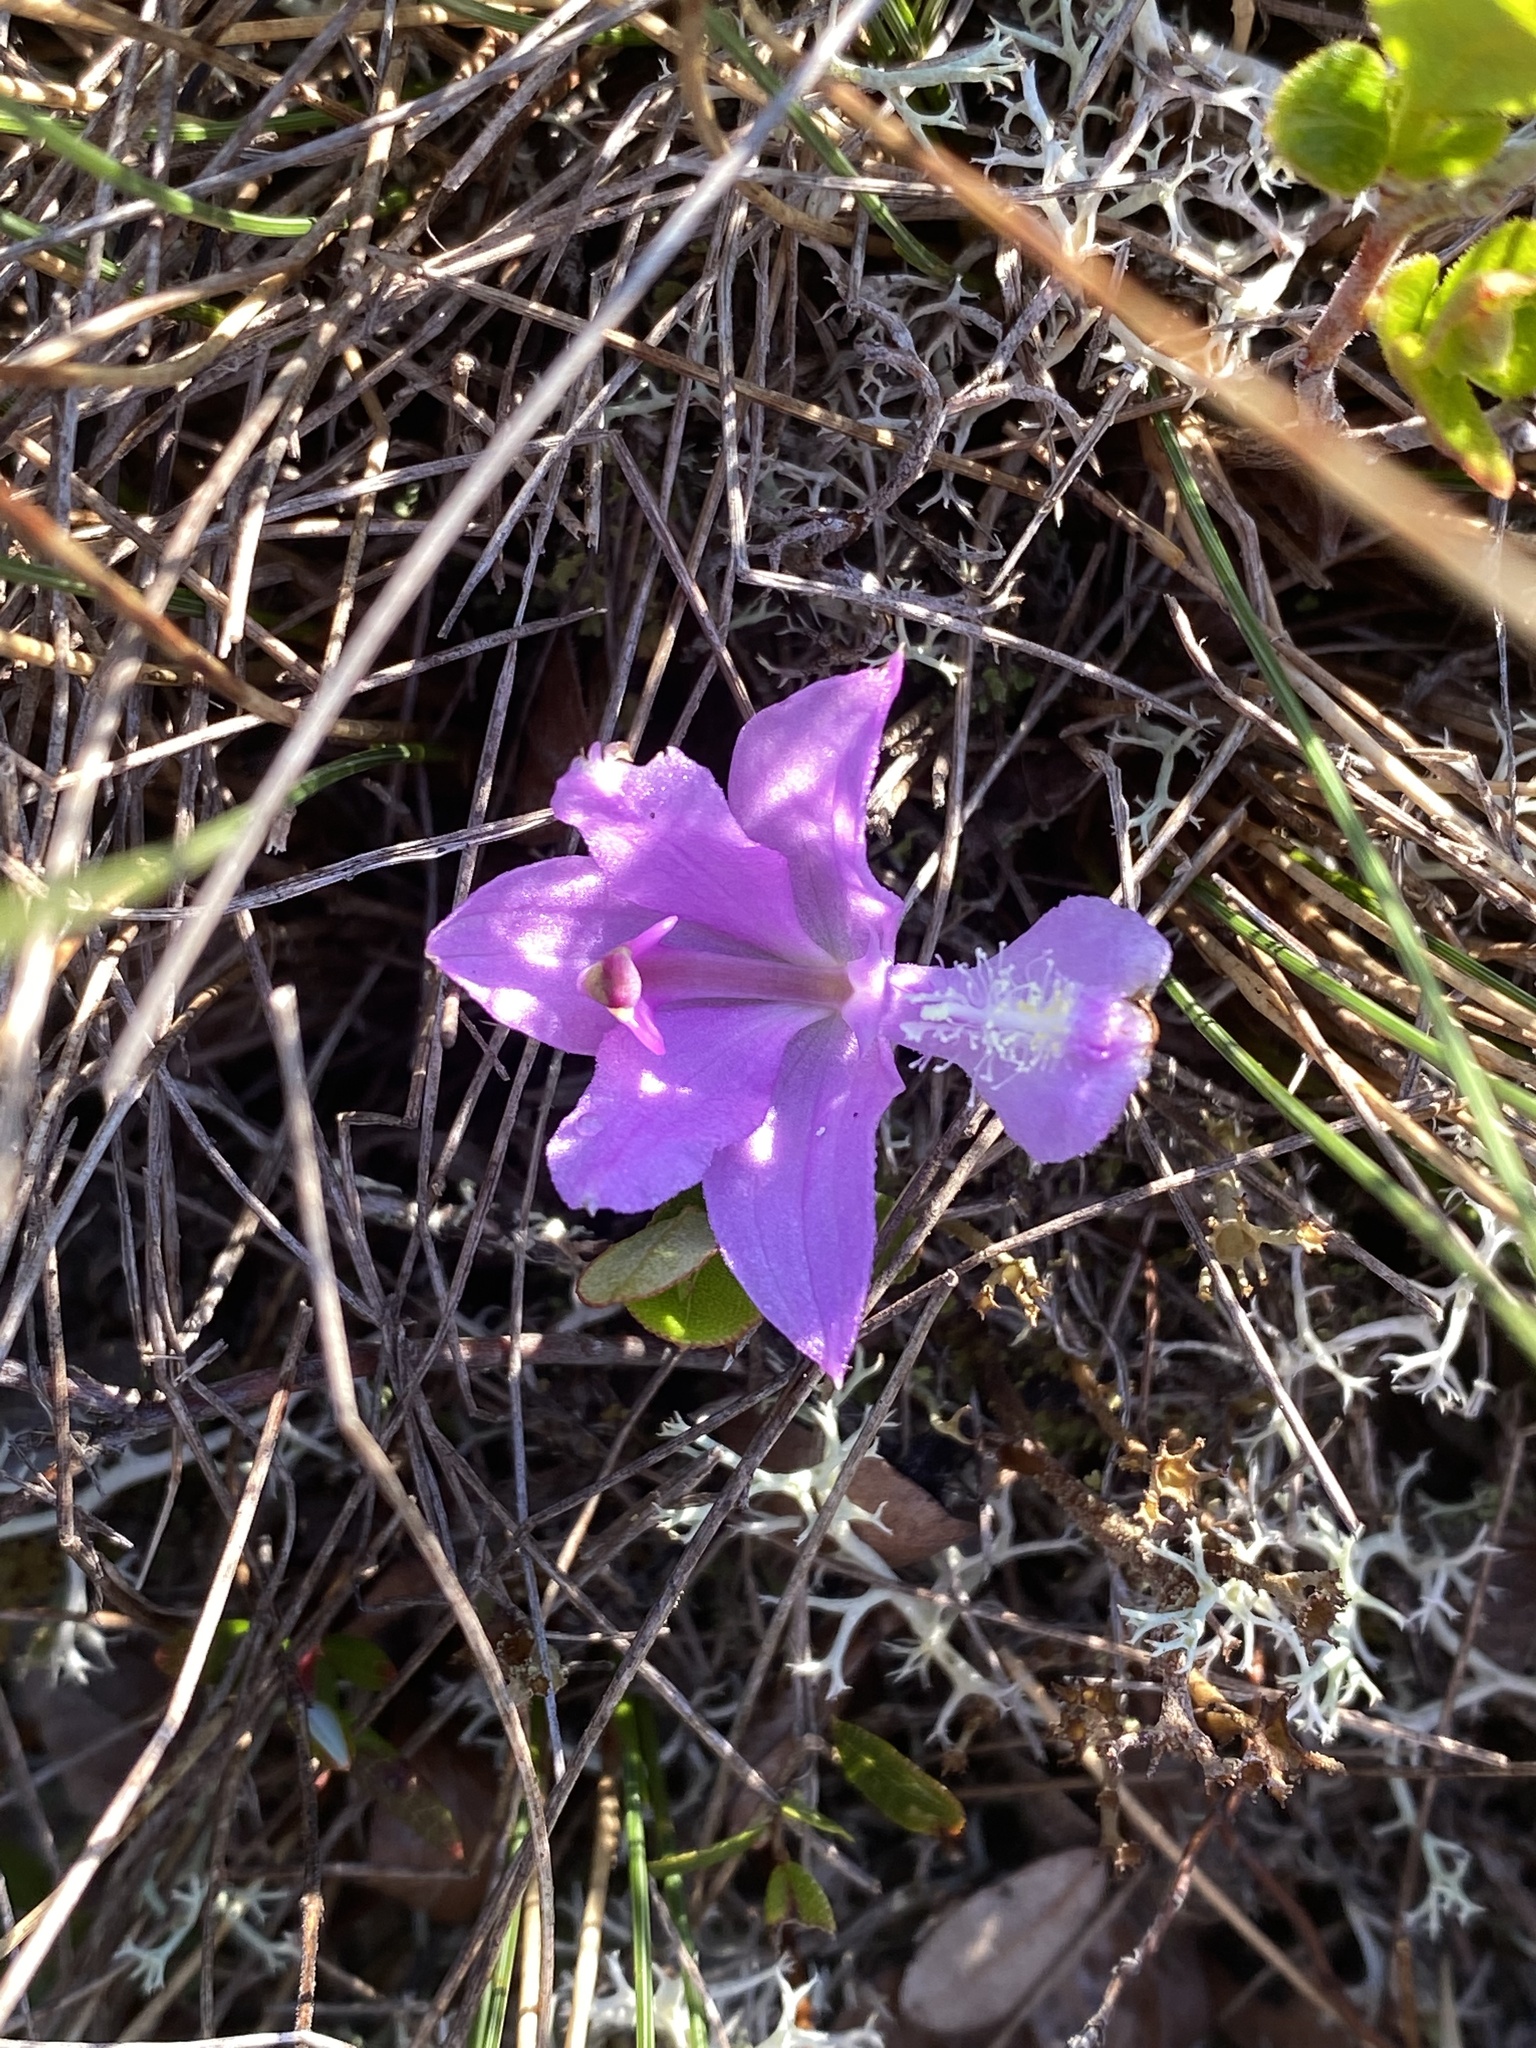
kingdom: Plantae
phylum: Tracheophyta
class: Liliopsida
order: Asparagales
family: Orchidaceae
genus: Calopogon
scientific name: Calopogon tuberosus
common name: Grass-pink
